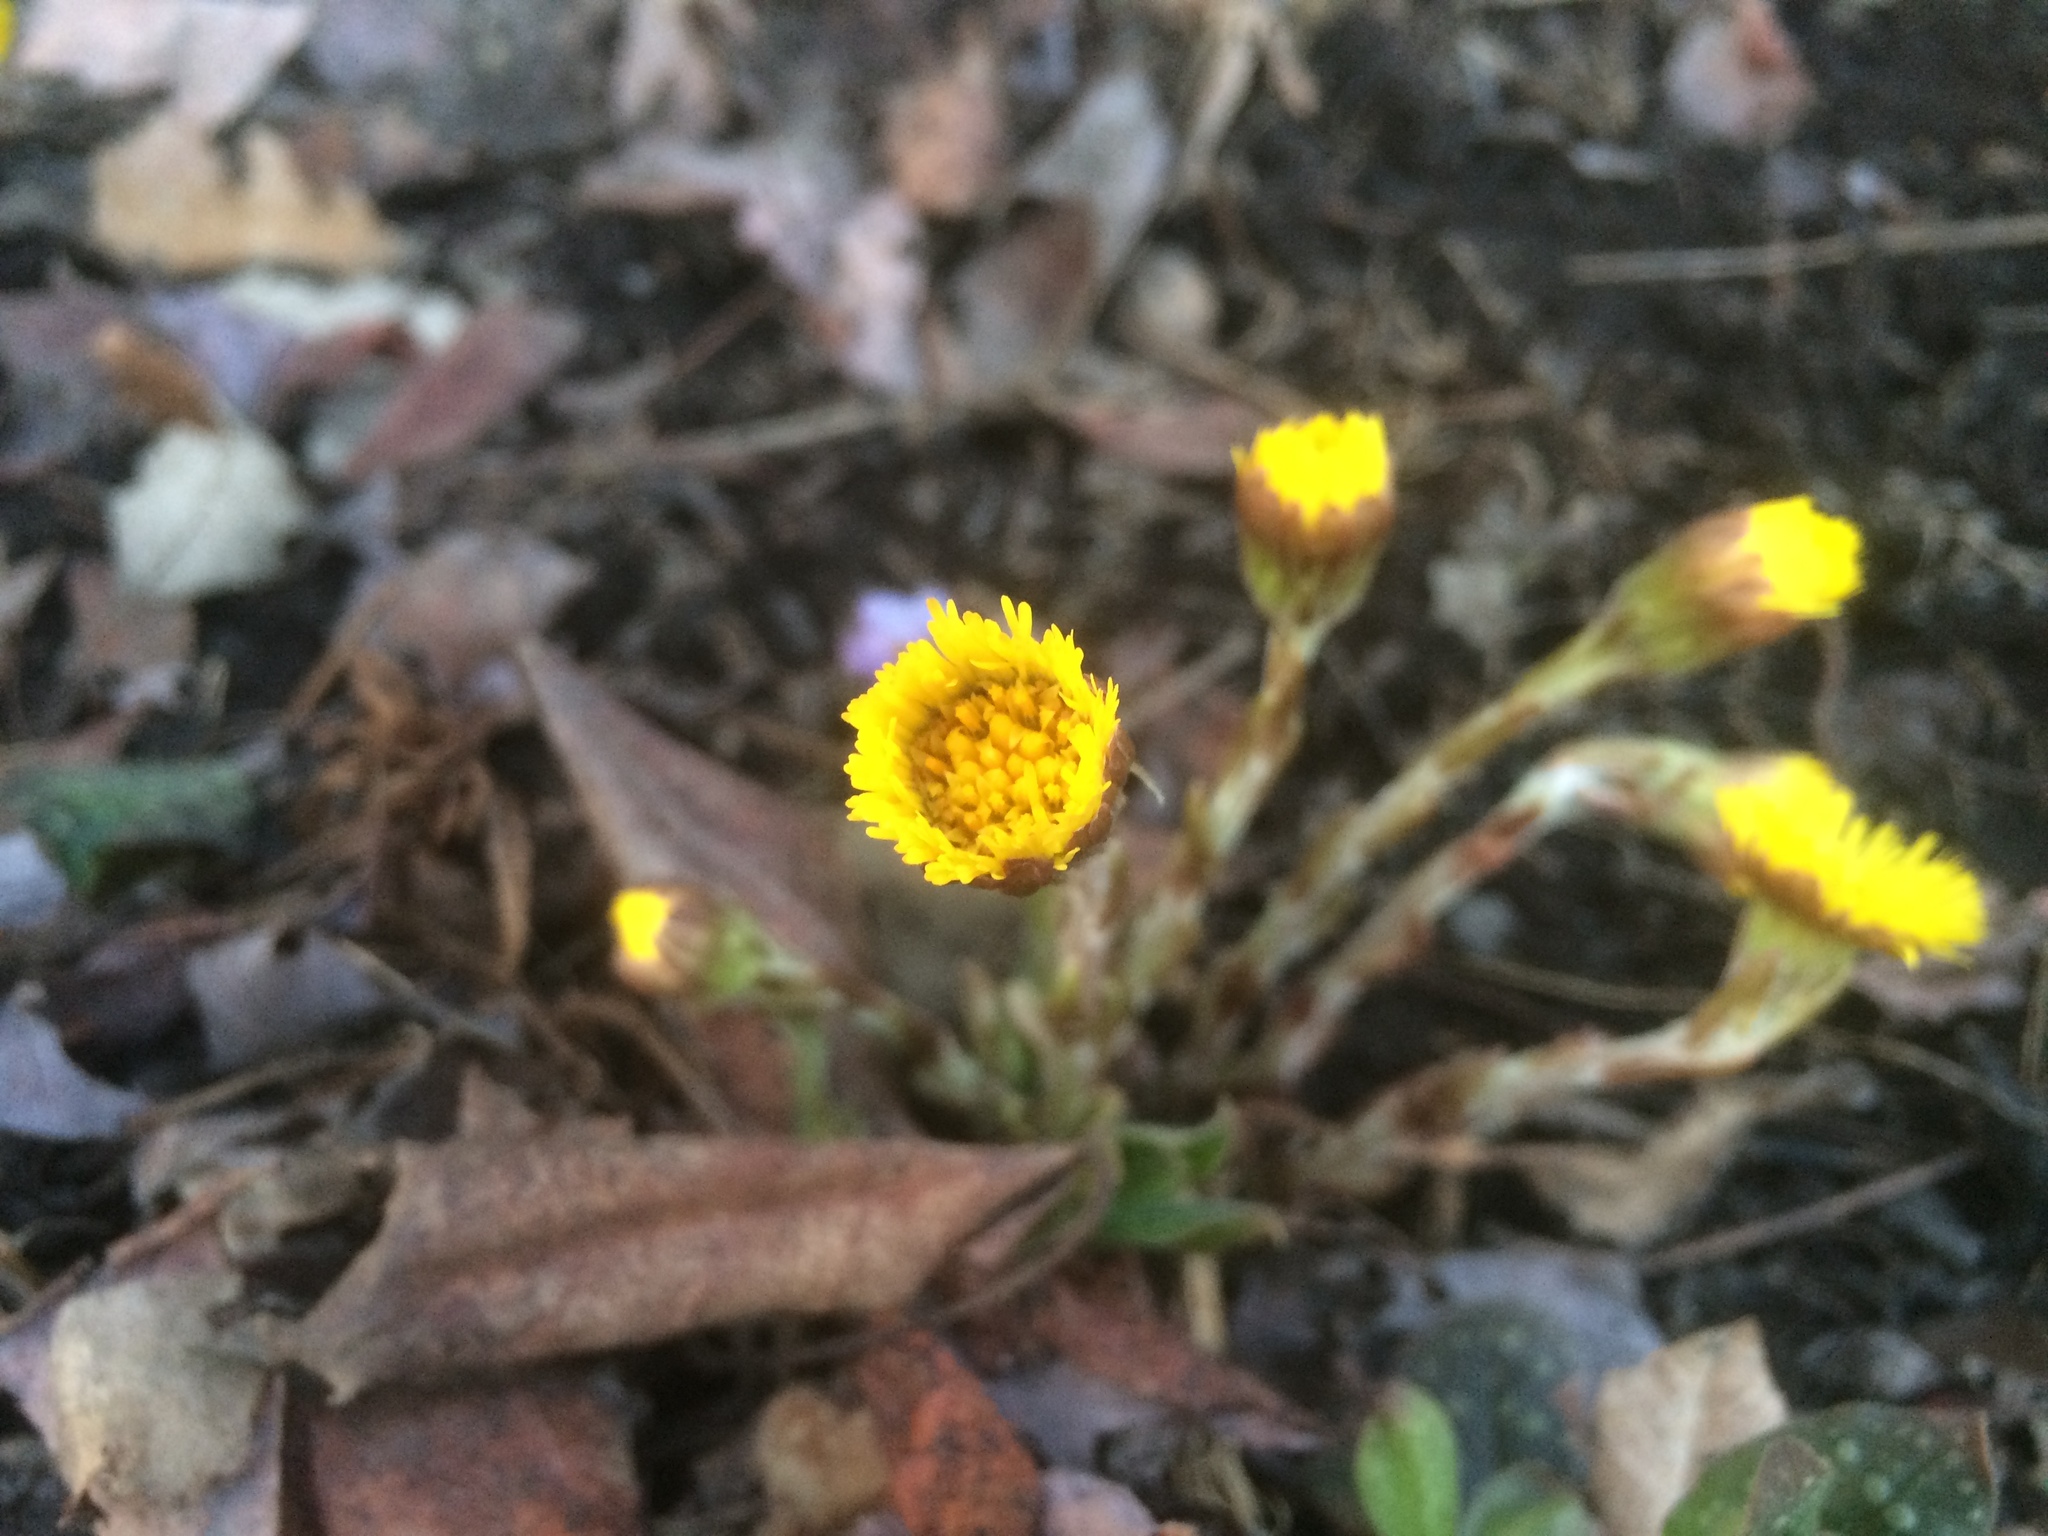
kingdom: Plantae
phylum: Tracheophyta
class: Magnoliopsida
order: Asterales
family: Asteraceae
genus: Tussilago
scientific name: Tussilago farfara
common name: Coltsfoot
